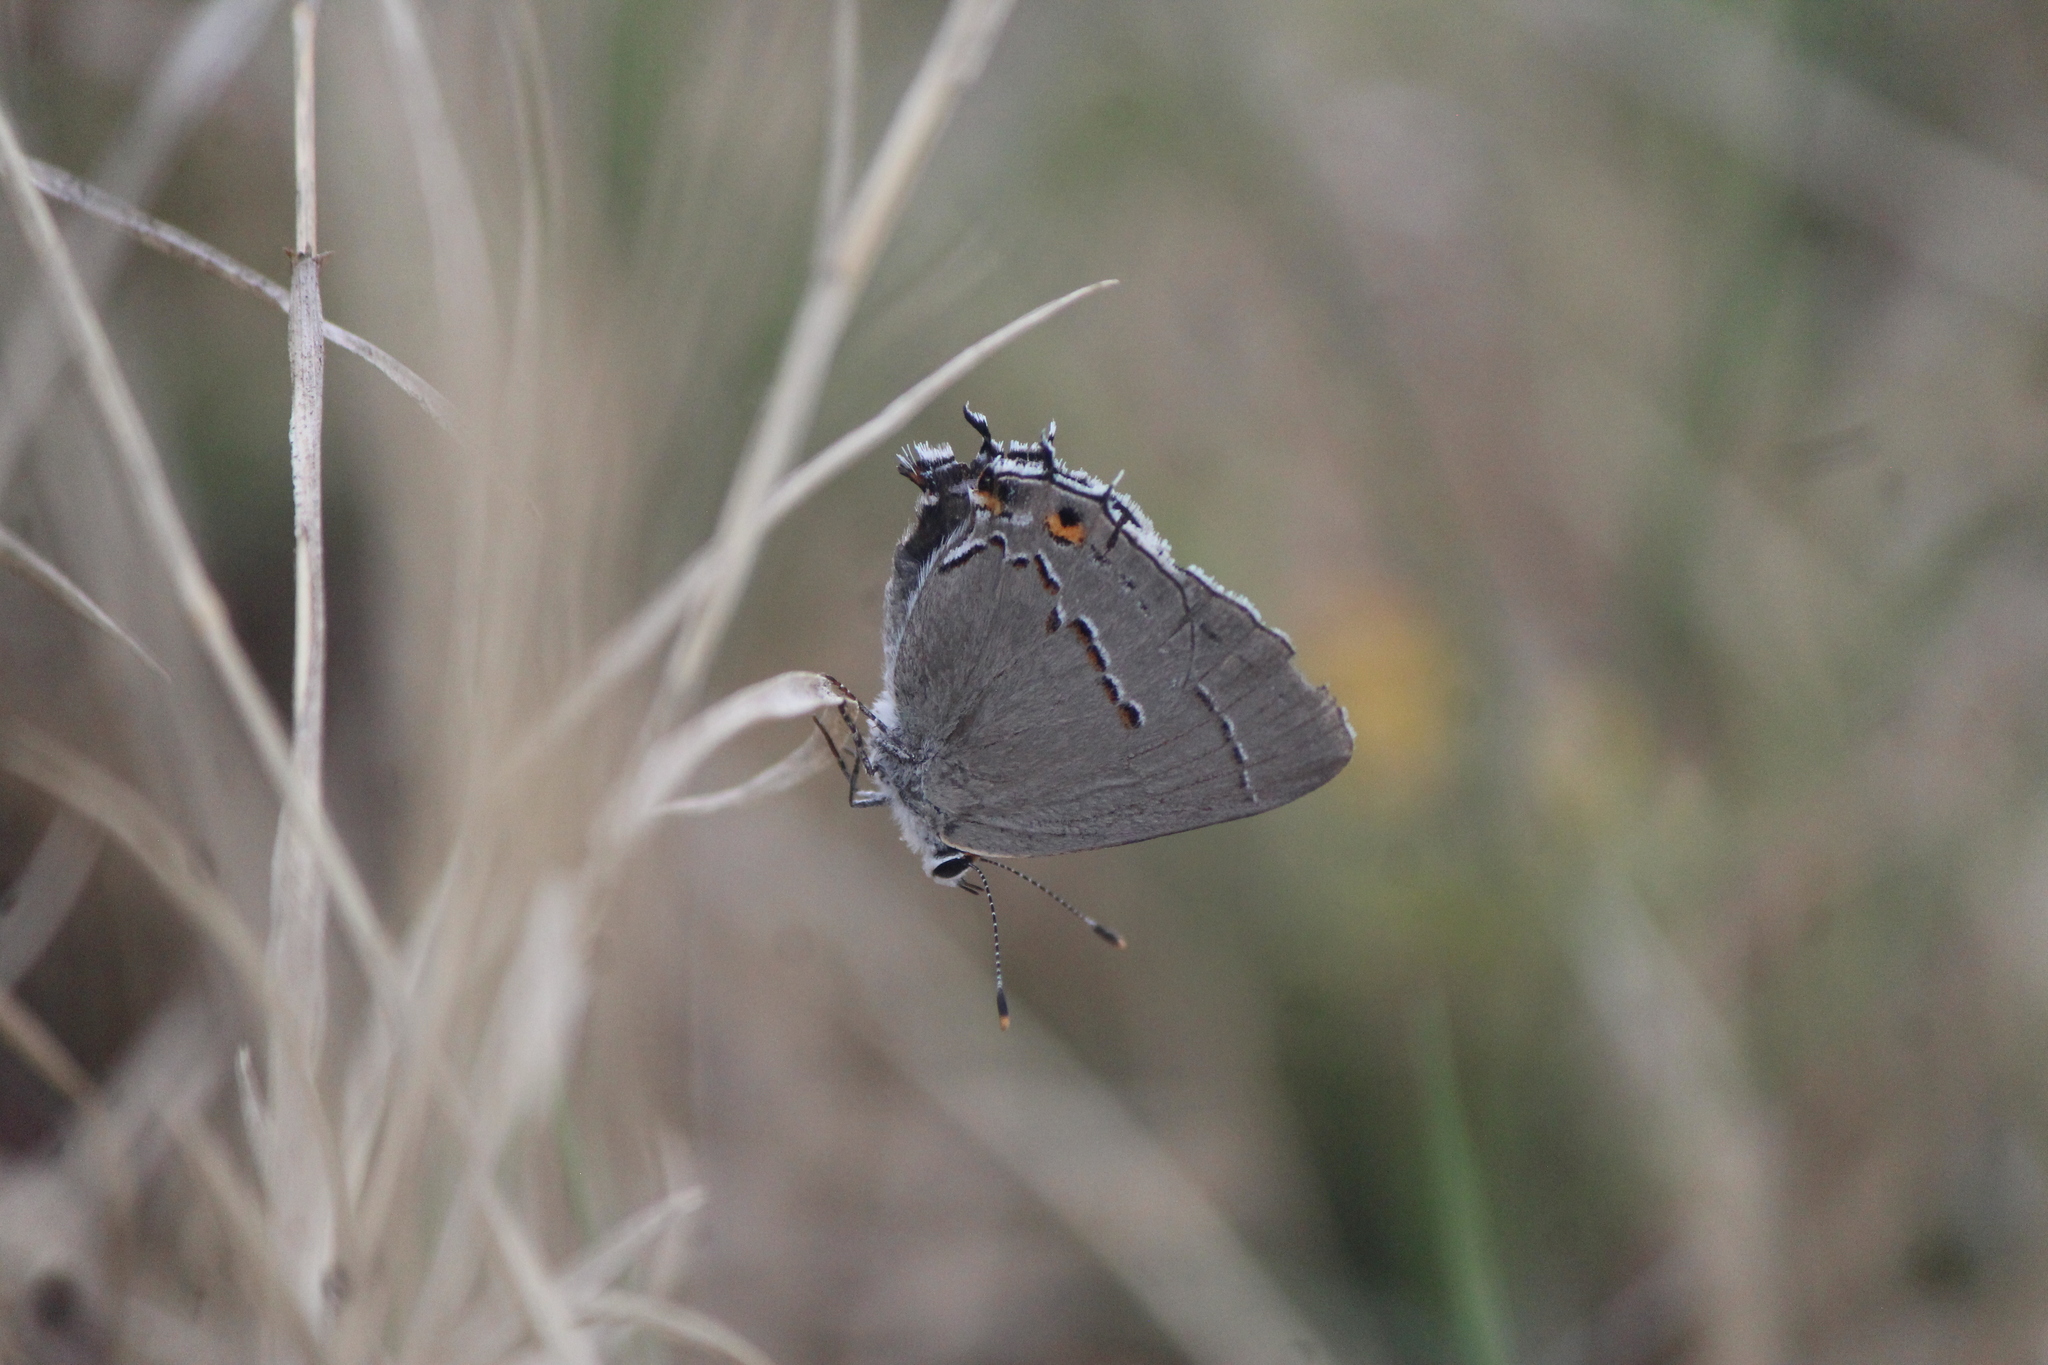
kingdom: Animalia
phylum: Arthropoda
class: Insecta
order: Lepidoptera
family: Lycaenidae
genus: Strymon
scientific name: Strymon melinus
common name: Gray hairstreak
